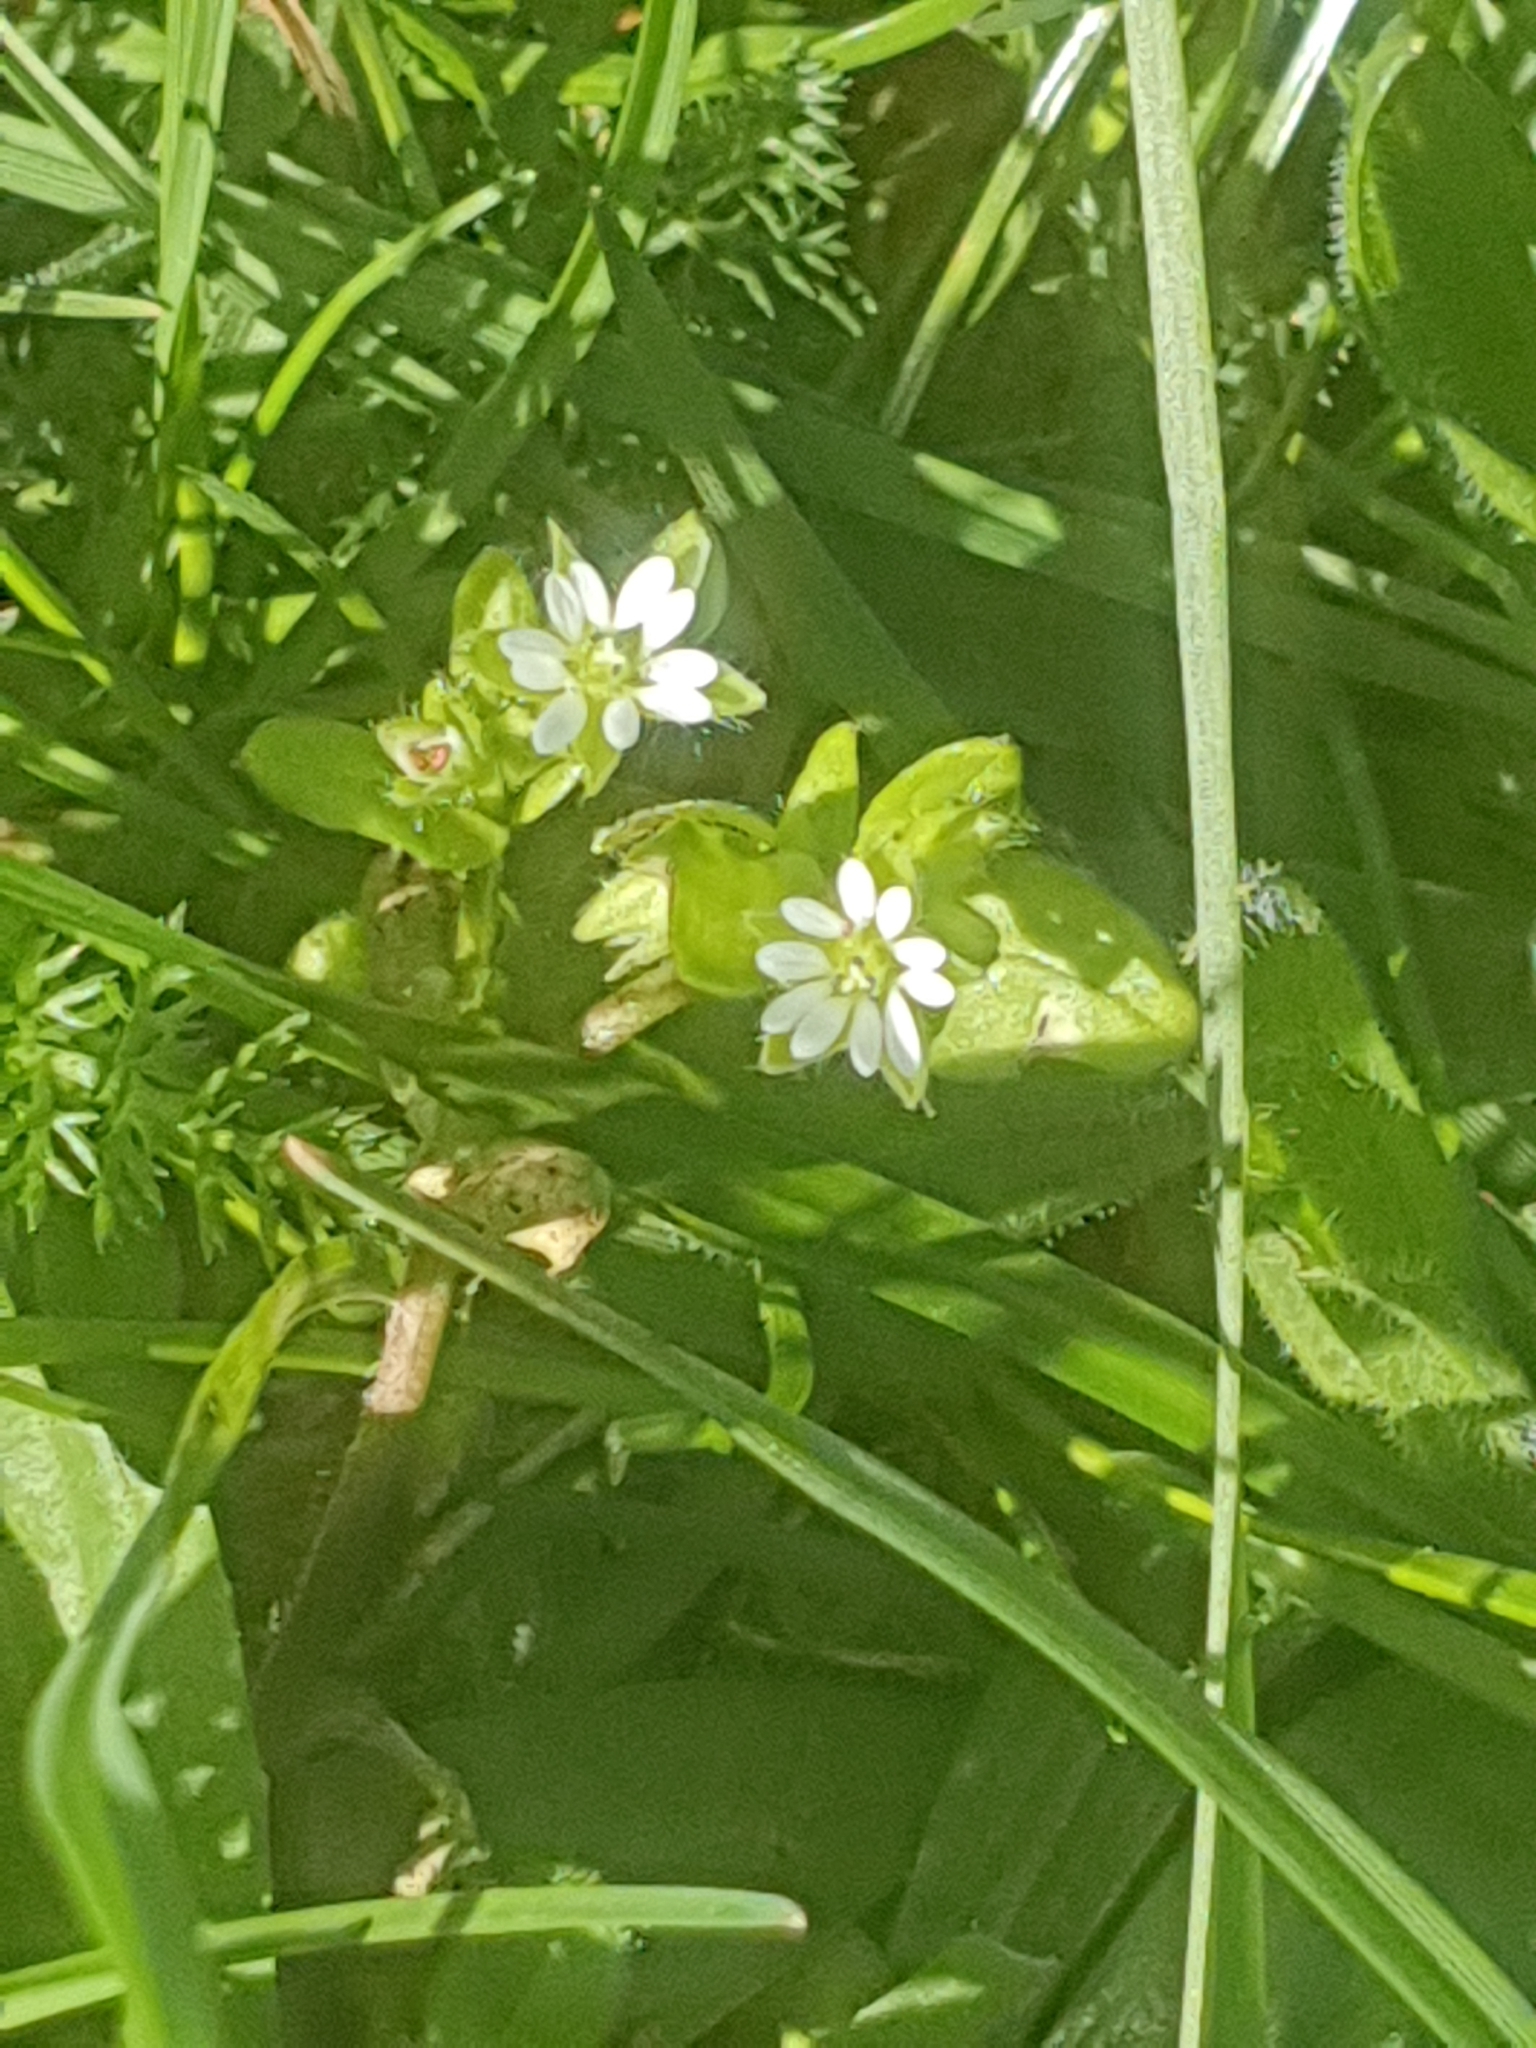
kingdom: Plantae
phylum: Tracheophyta
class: Magnoliopsida
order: Caryophyllales
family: Caryophyllaceae
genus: Stellaria
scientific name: Stellaria media
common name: Common chickweed
